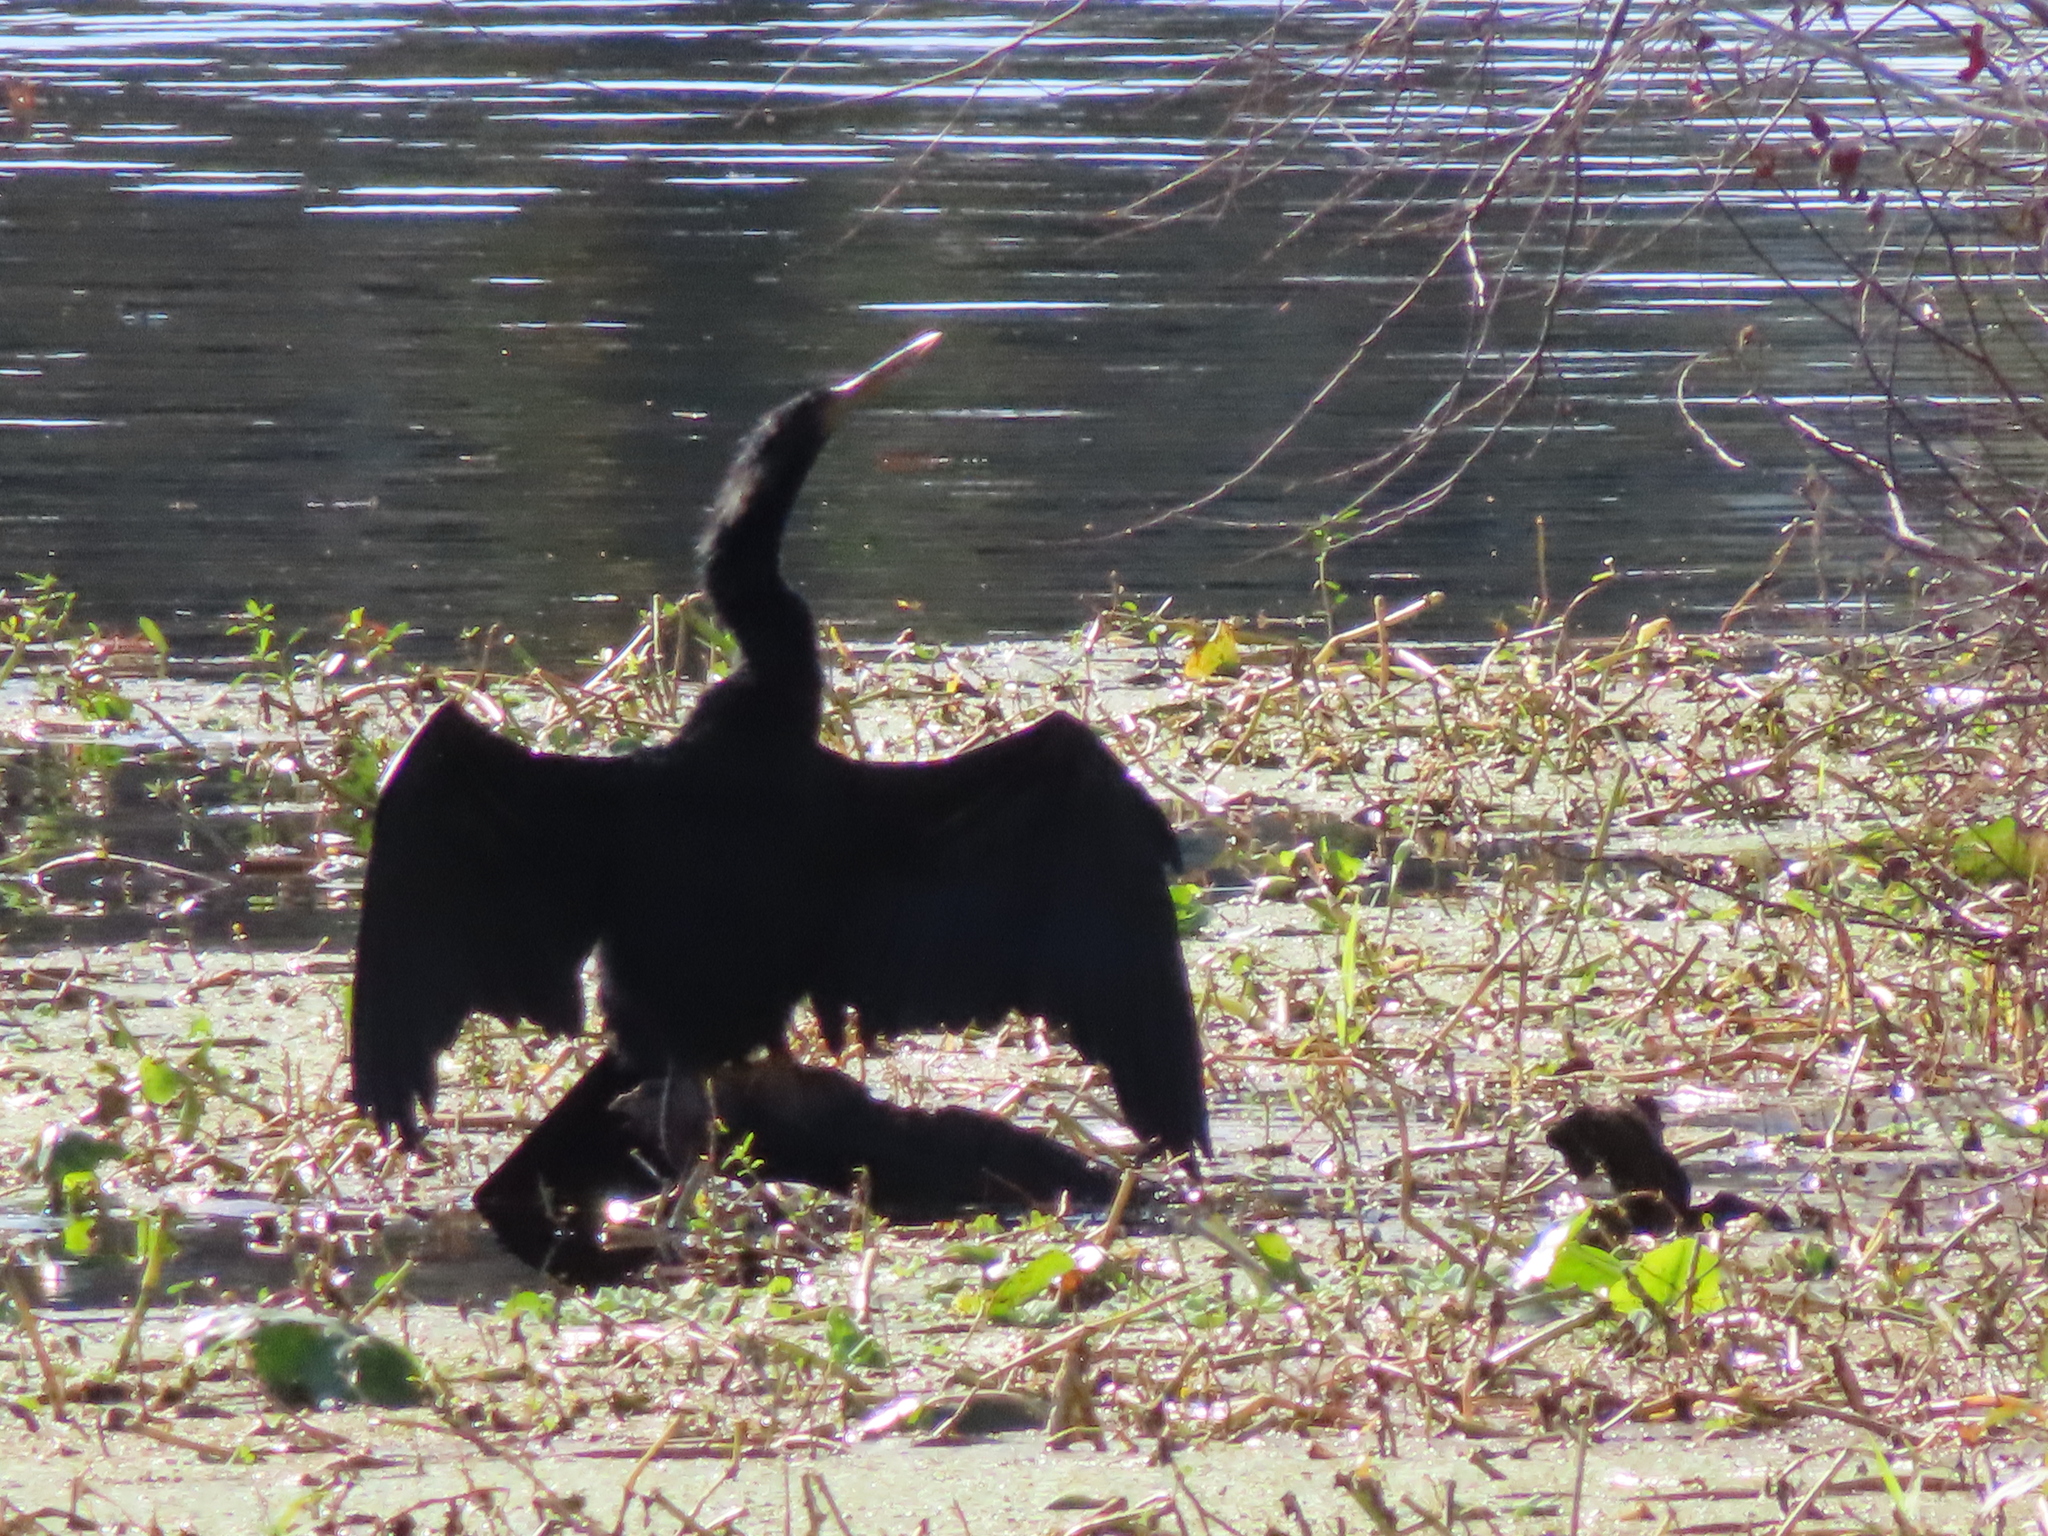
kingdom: Animalia
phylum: Chordata
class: Aves
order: Suliformes
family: Anhingidae
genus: Anhinga
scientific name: Anhinga anhinga
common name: Anhinga
